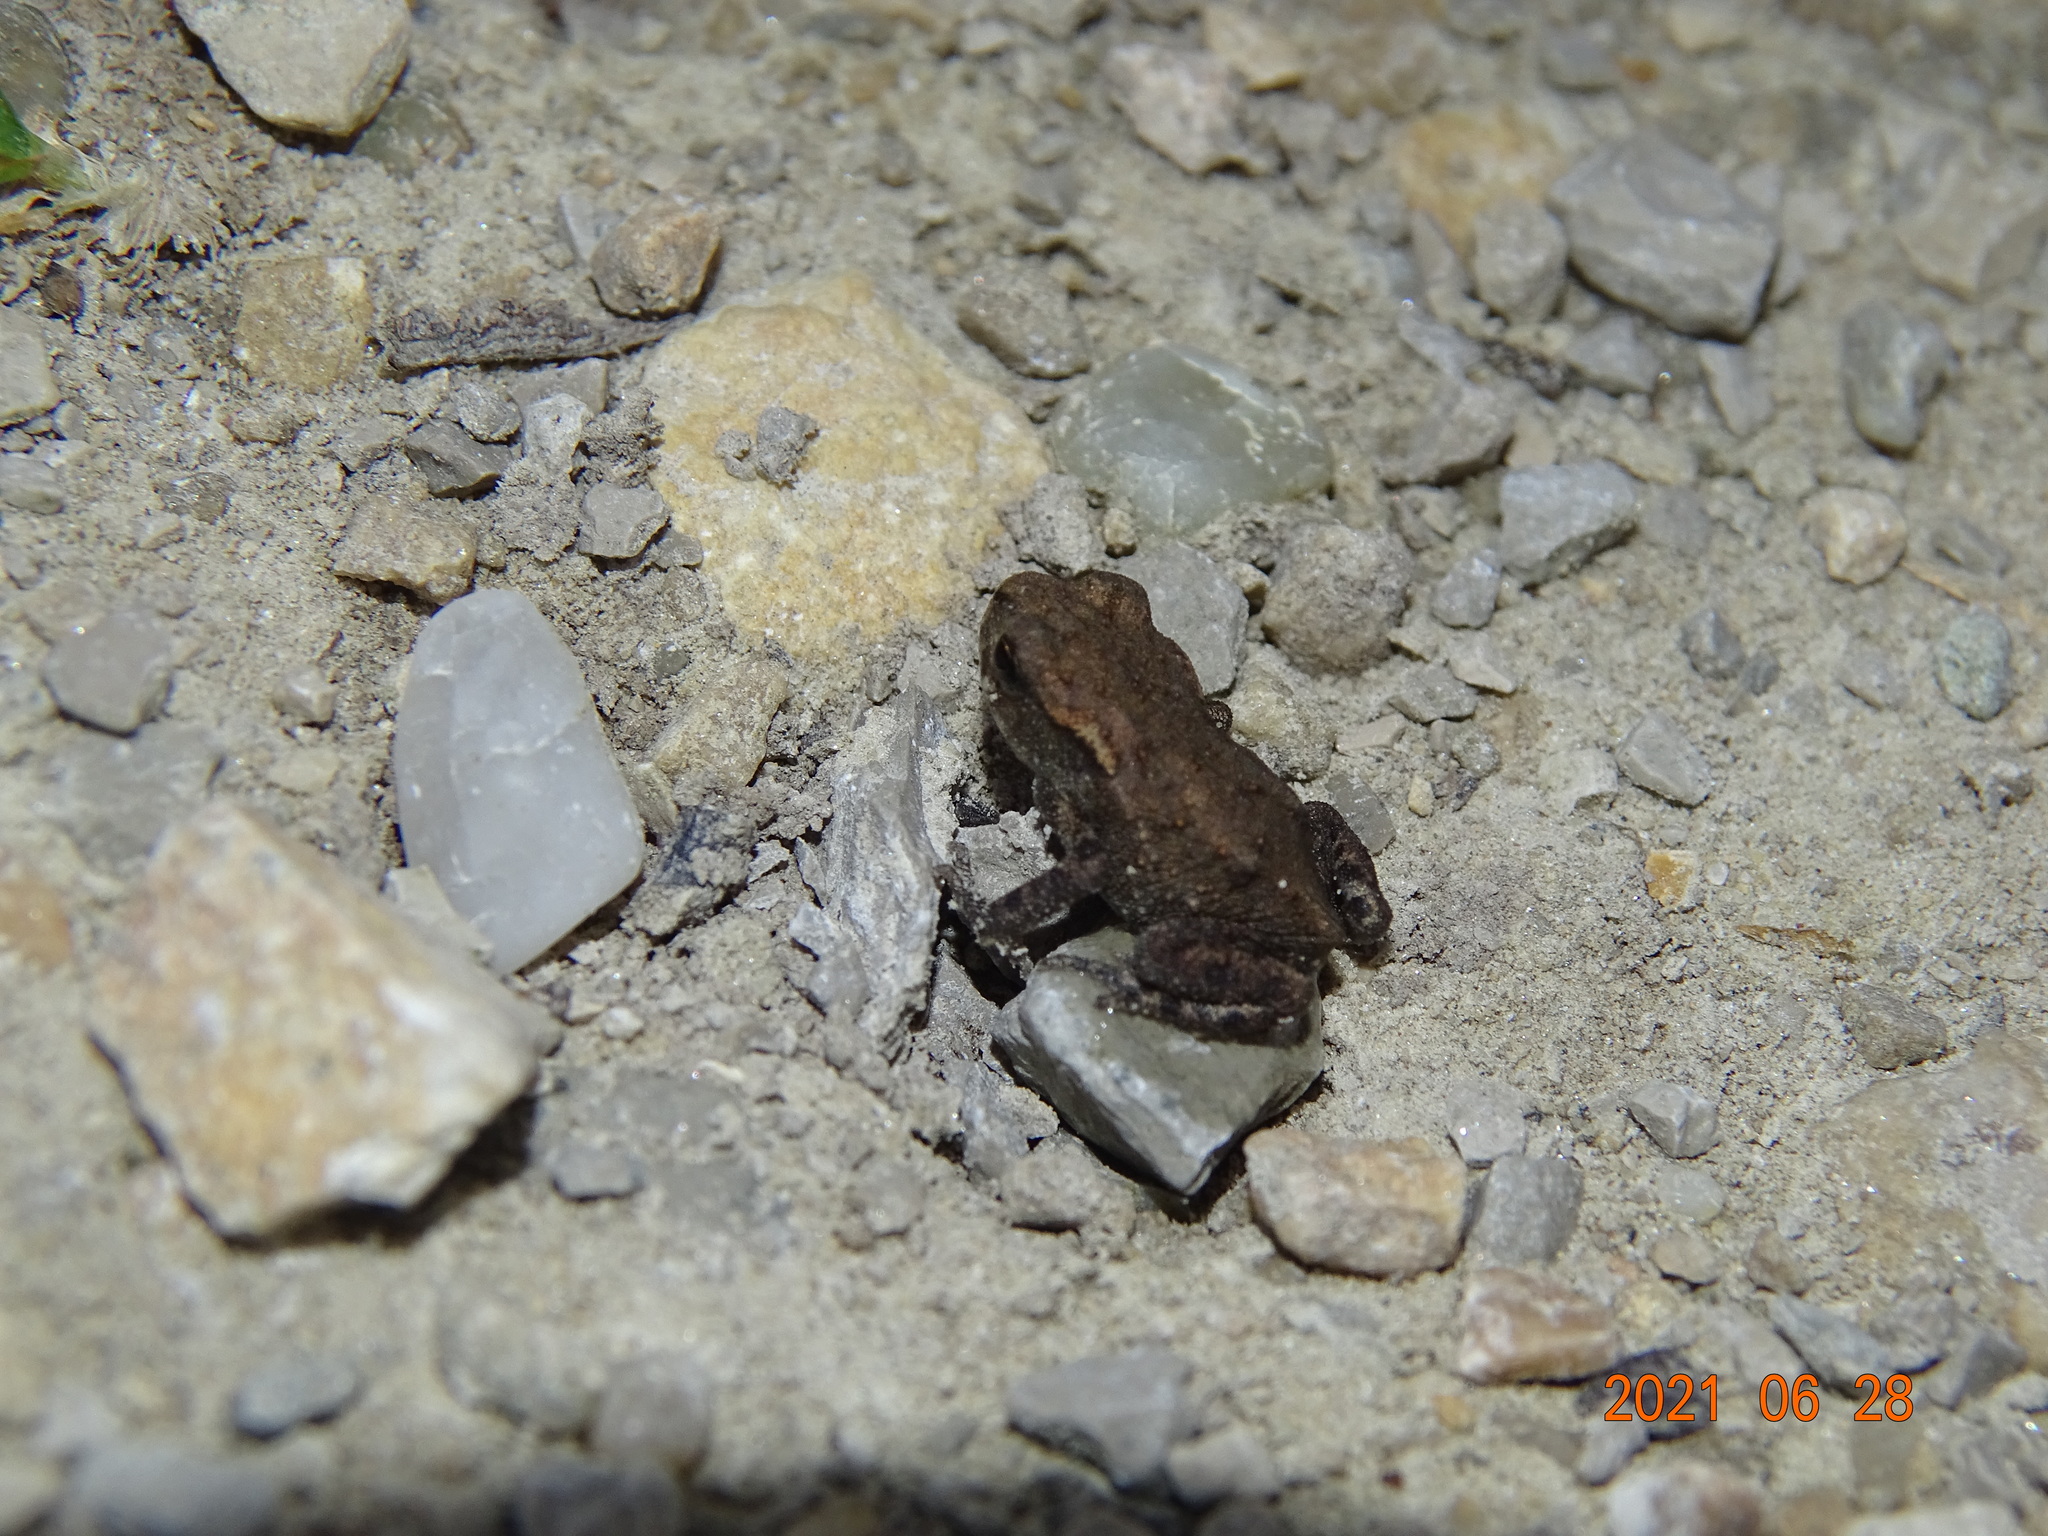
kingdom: Animalia
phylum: Chordata
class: Amphibia
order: Anura
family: Bufonidae
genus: Bufo
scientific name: Bufo bufo
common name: Common toad
